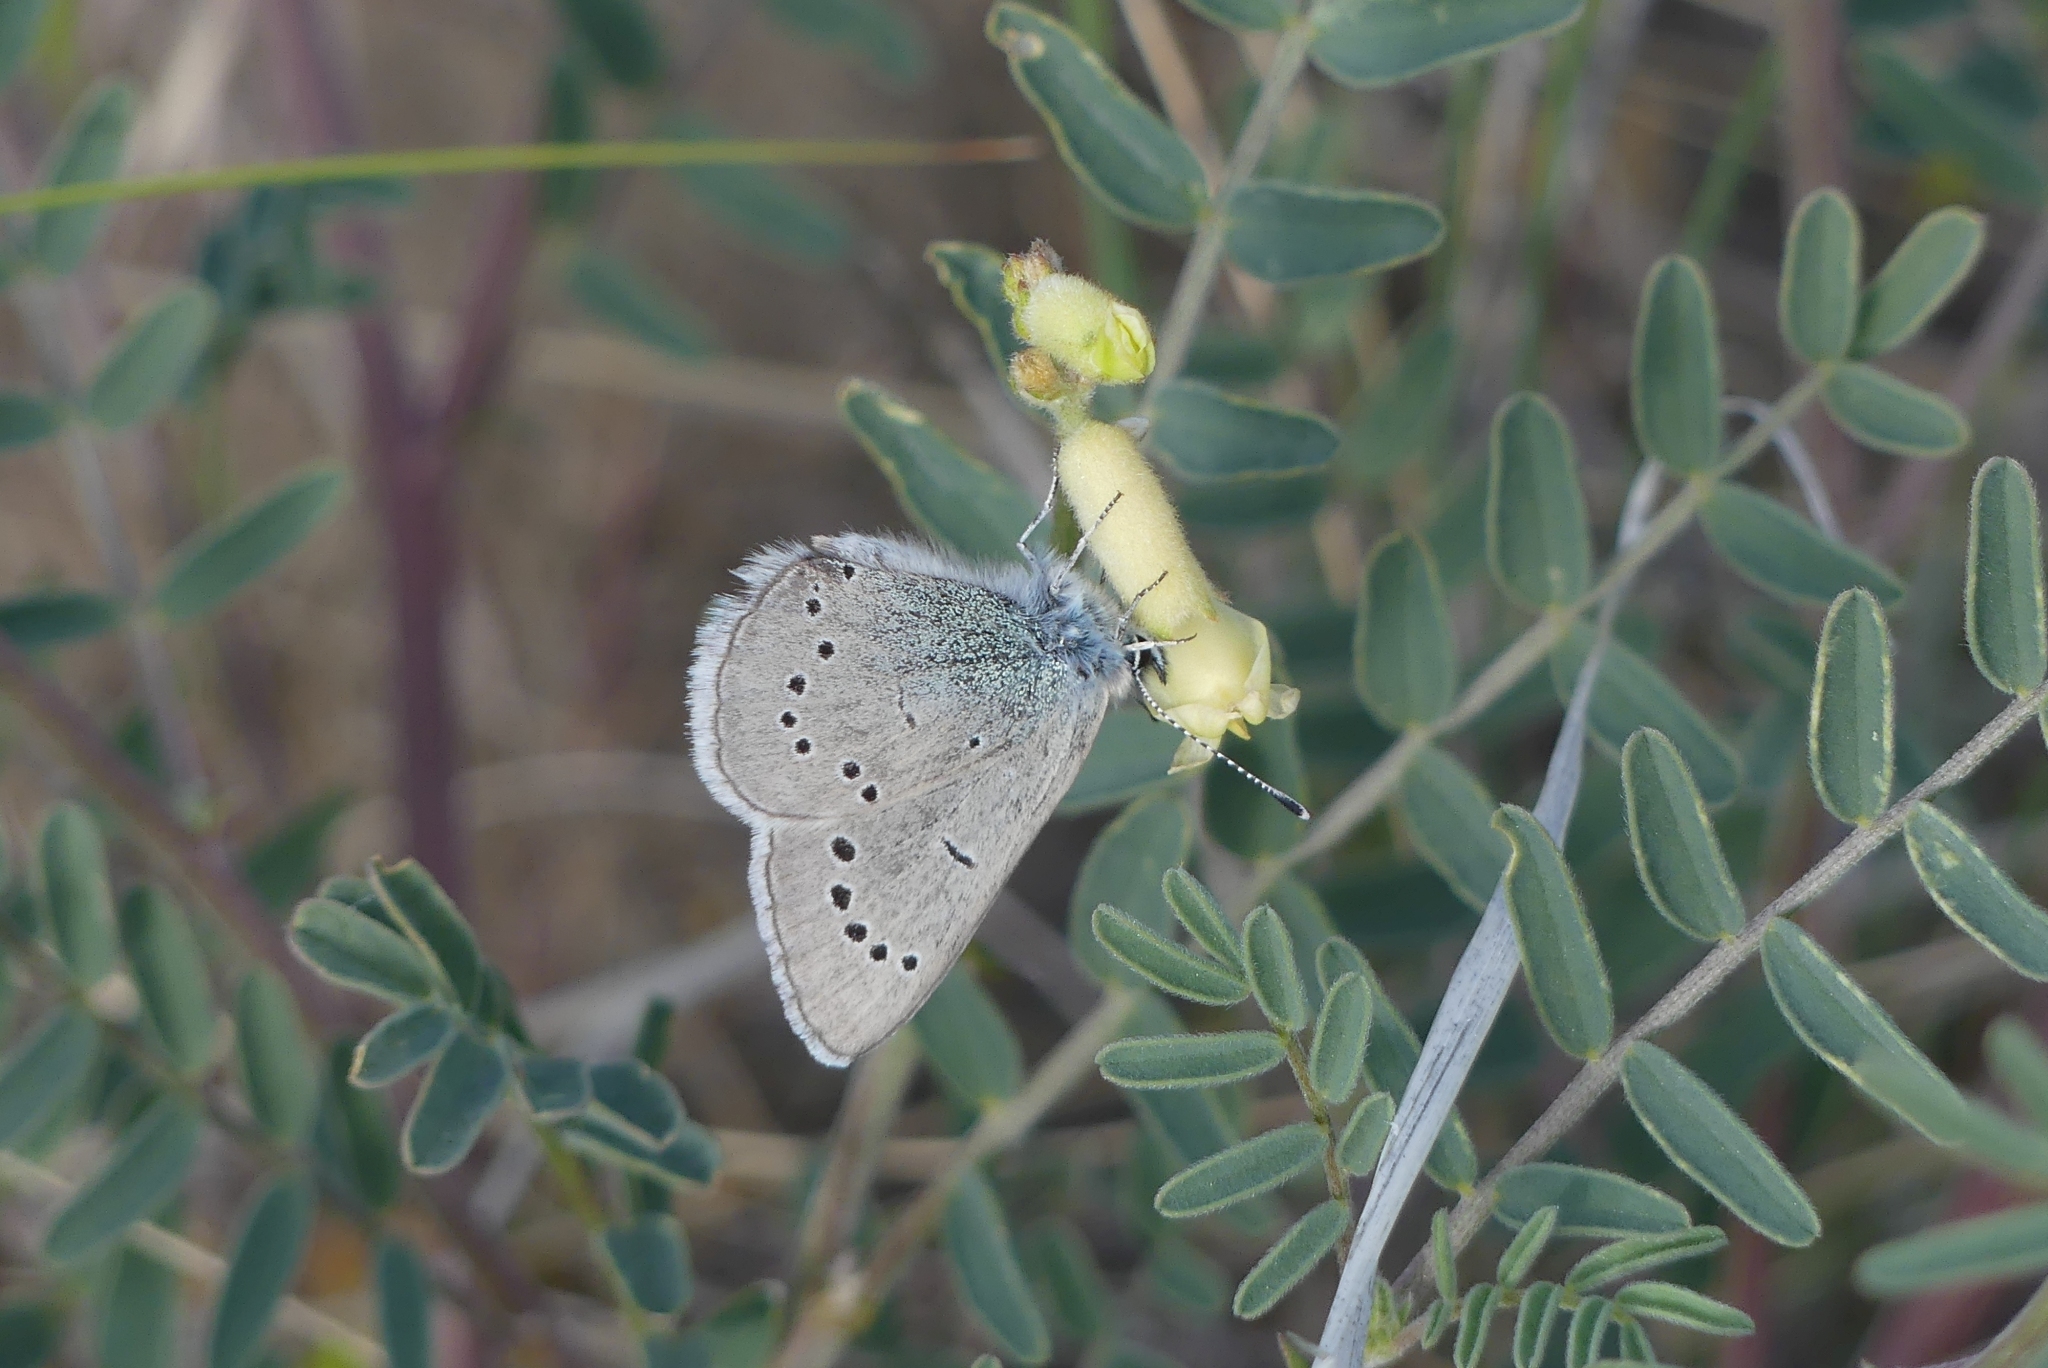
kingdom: Animalia
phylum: Arthropoda
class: Insecta
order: Lepidoptera
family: Lycaenidae
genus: Glaucopsyche
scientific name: Glaucopsyche lygdamus
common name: Silvery blue
